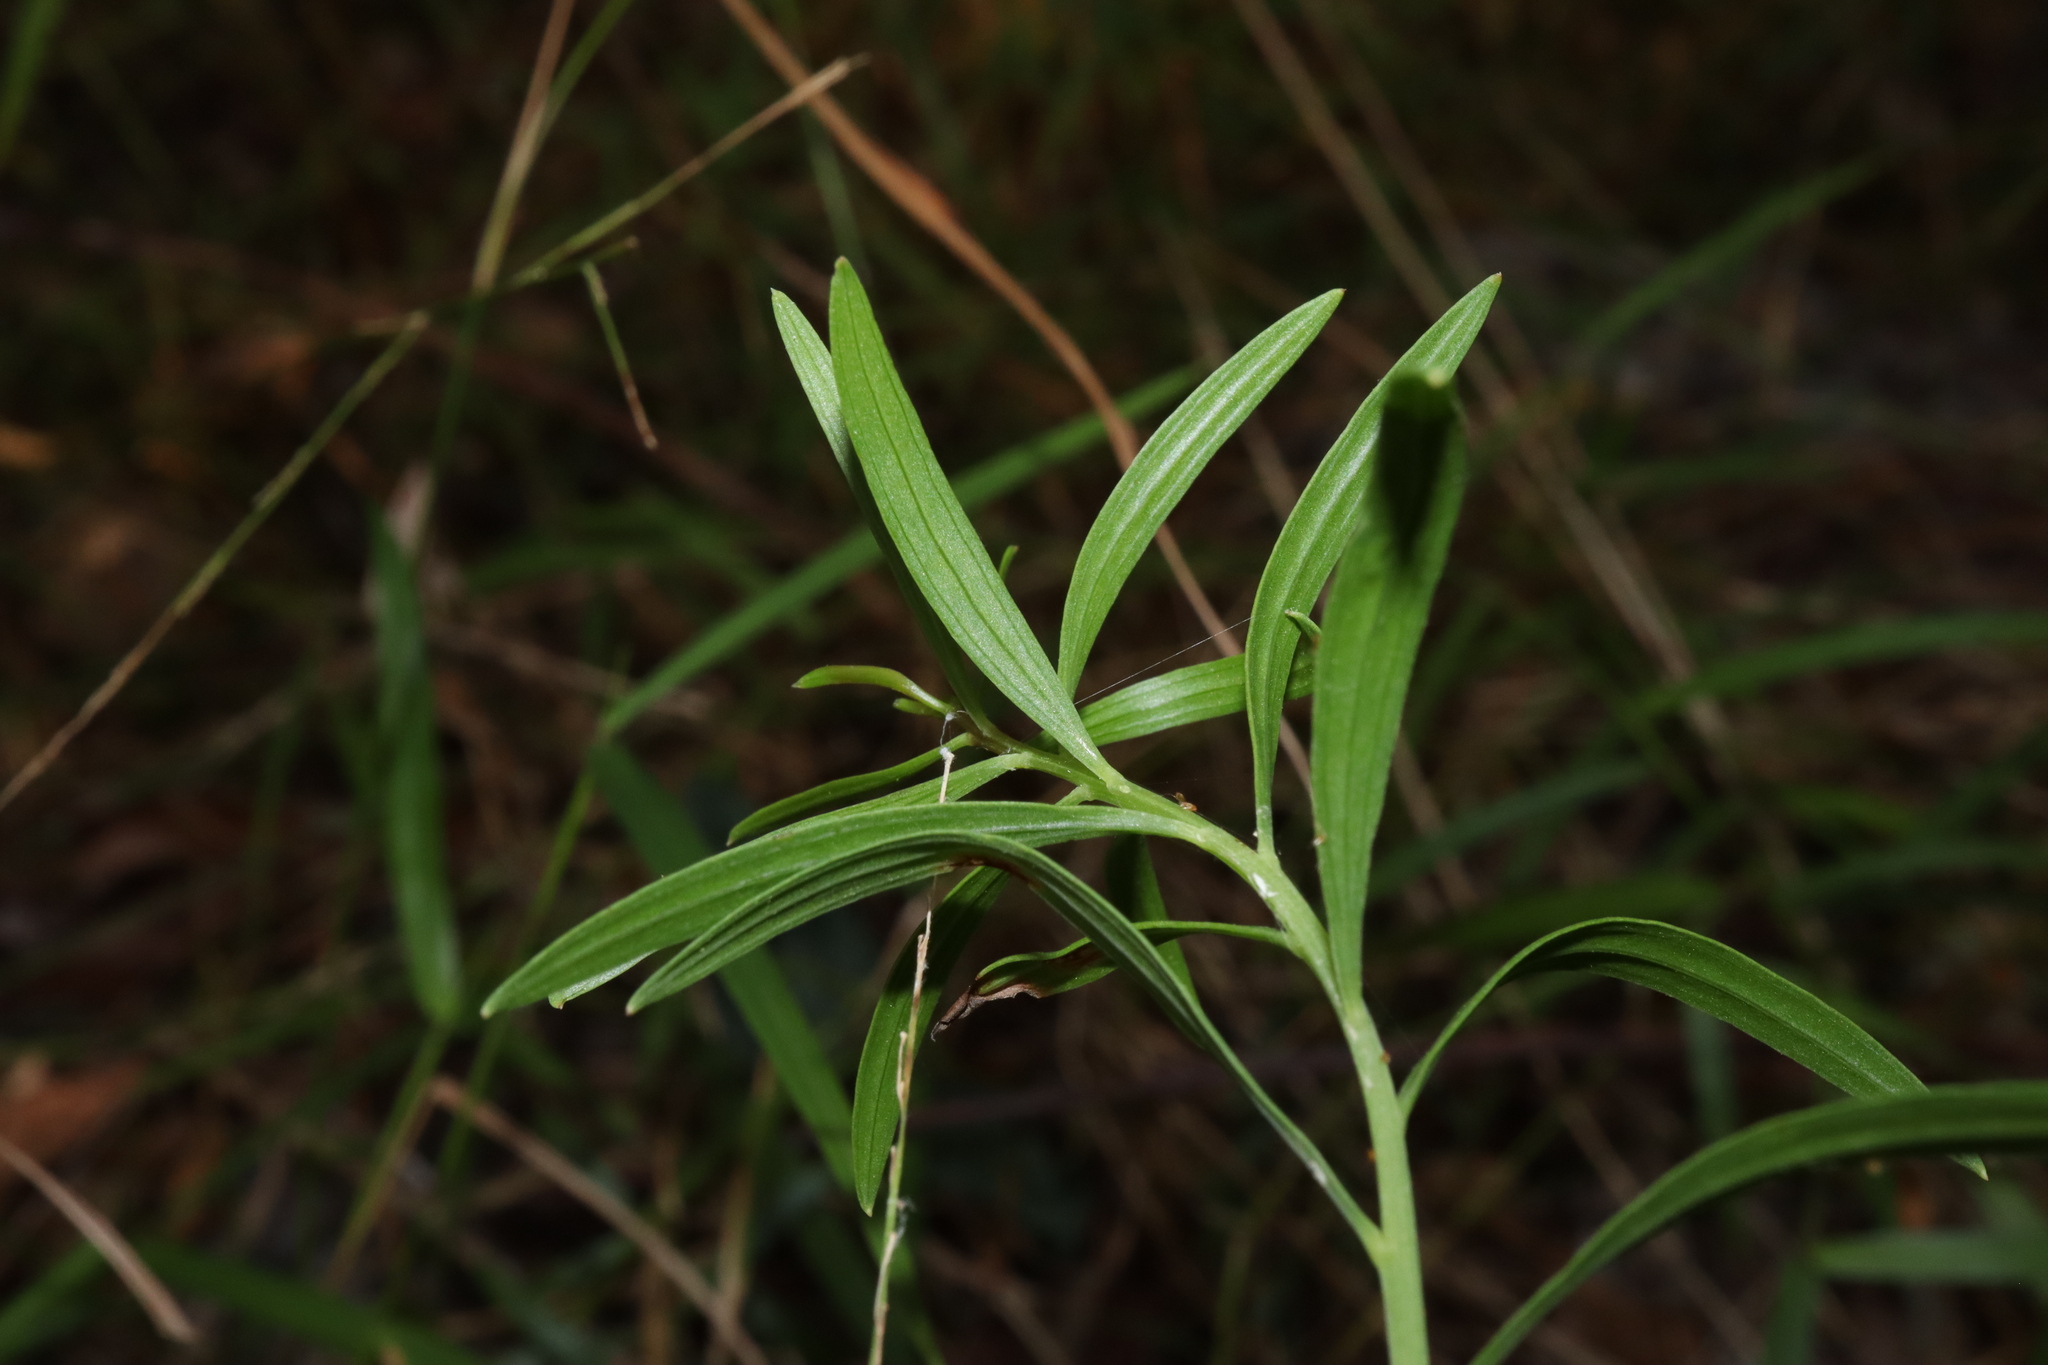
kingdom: Plantae
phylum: Tracheophyta
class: Magnoliopsida
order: Apiales
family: Apiaceae
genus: Platysace
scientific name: Platysace valida
